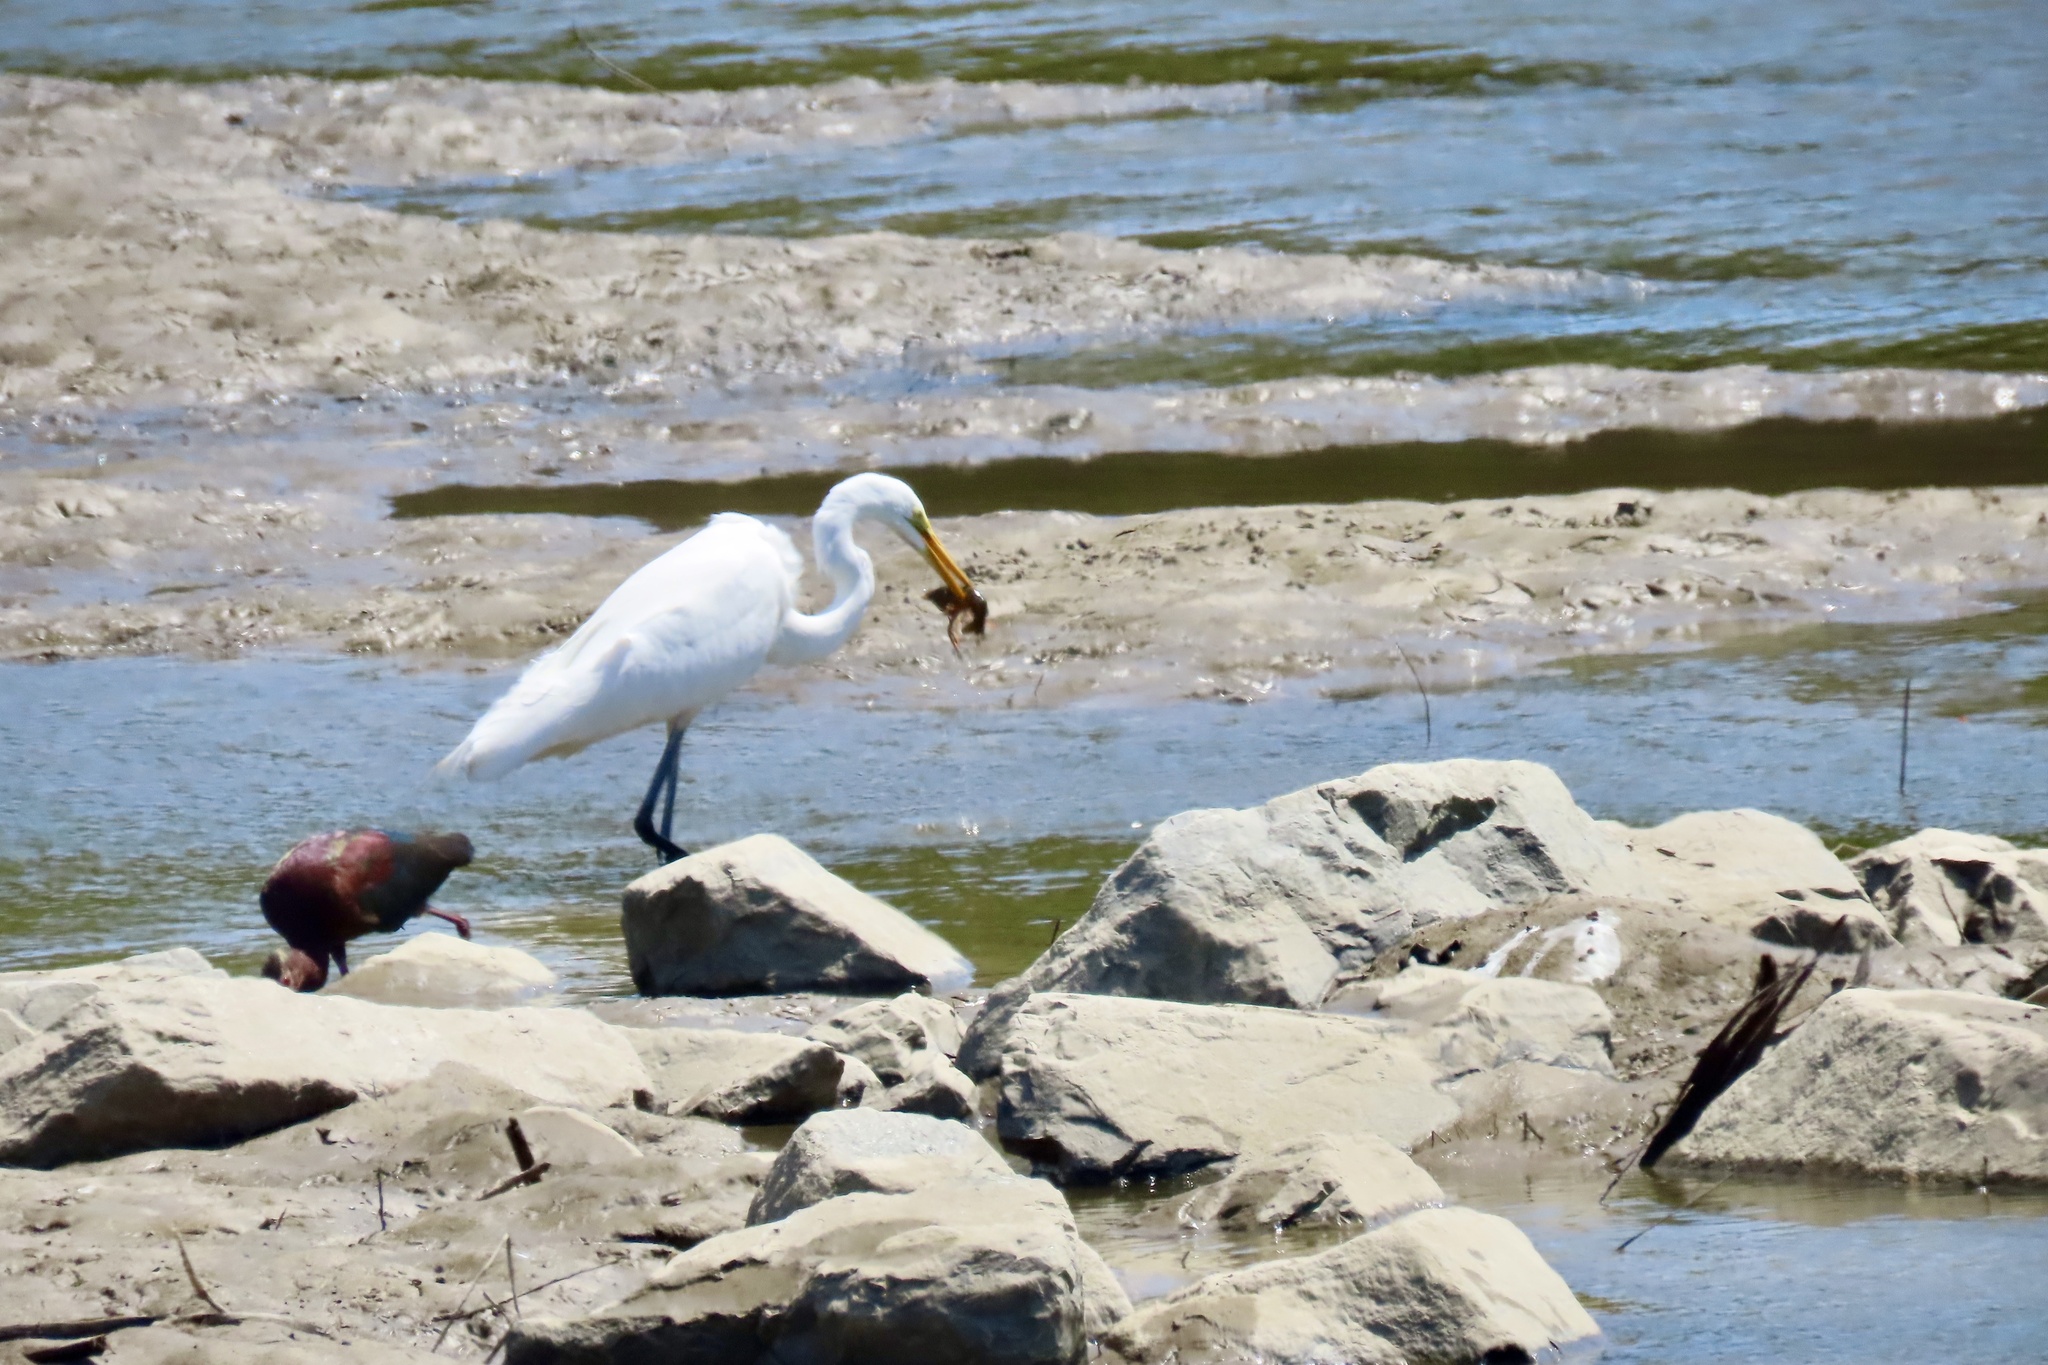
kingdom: Animalia
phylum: Chordata
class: Aves
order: Pelecaniformes
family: Ardeidae
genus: Ardea
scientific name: Ardea alba
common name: Great egret
